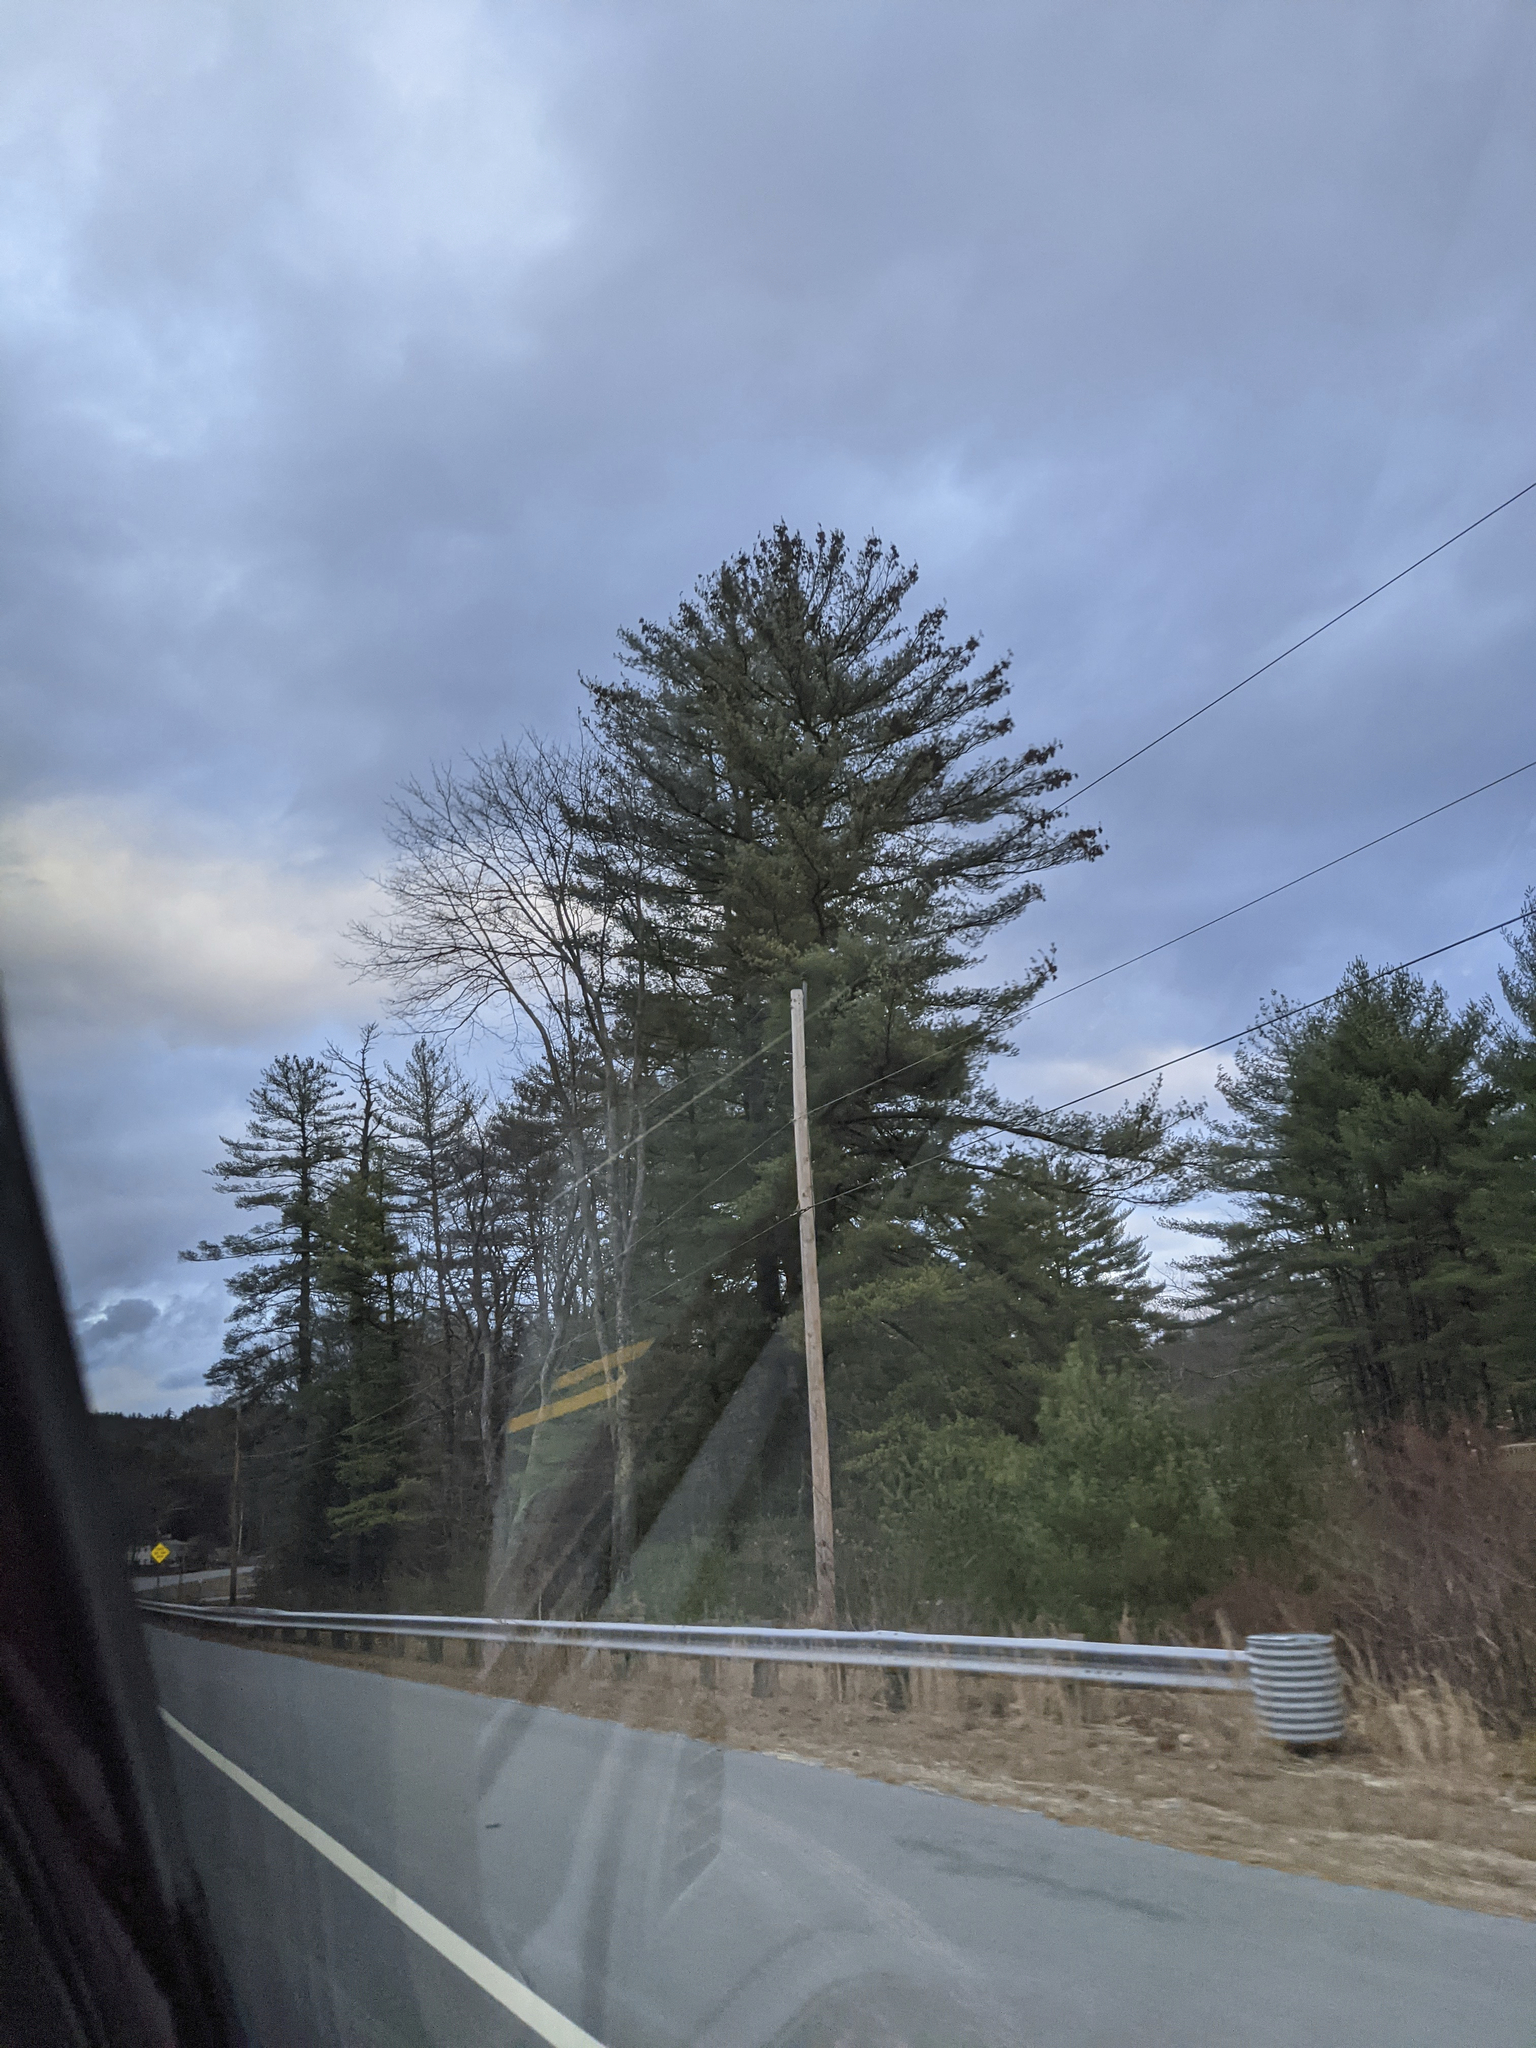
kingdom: Plantae
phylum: Tracheophyta
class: Pinopsida
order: Pinales
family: Pinaceae
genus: Pinus
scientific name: Pinus strobus
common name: Weymouth pine
